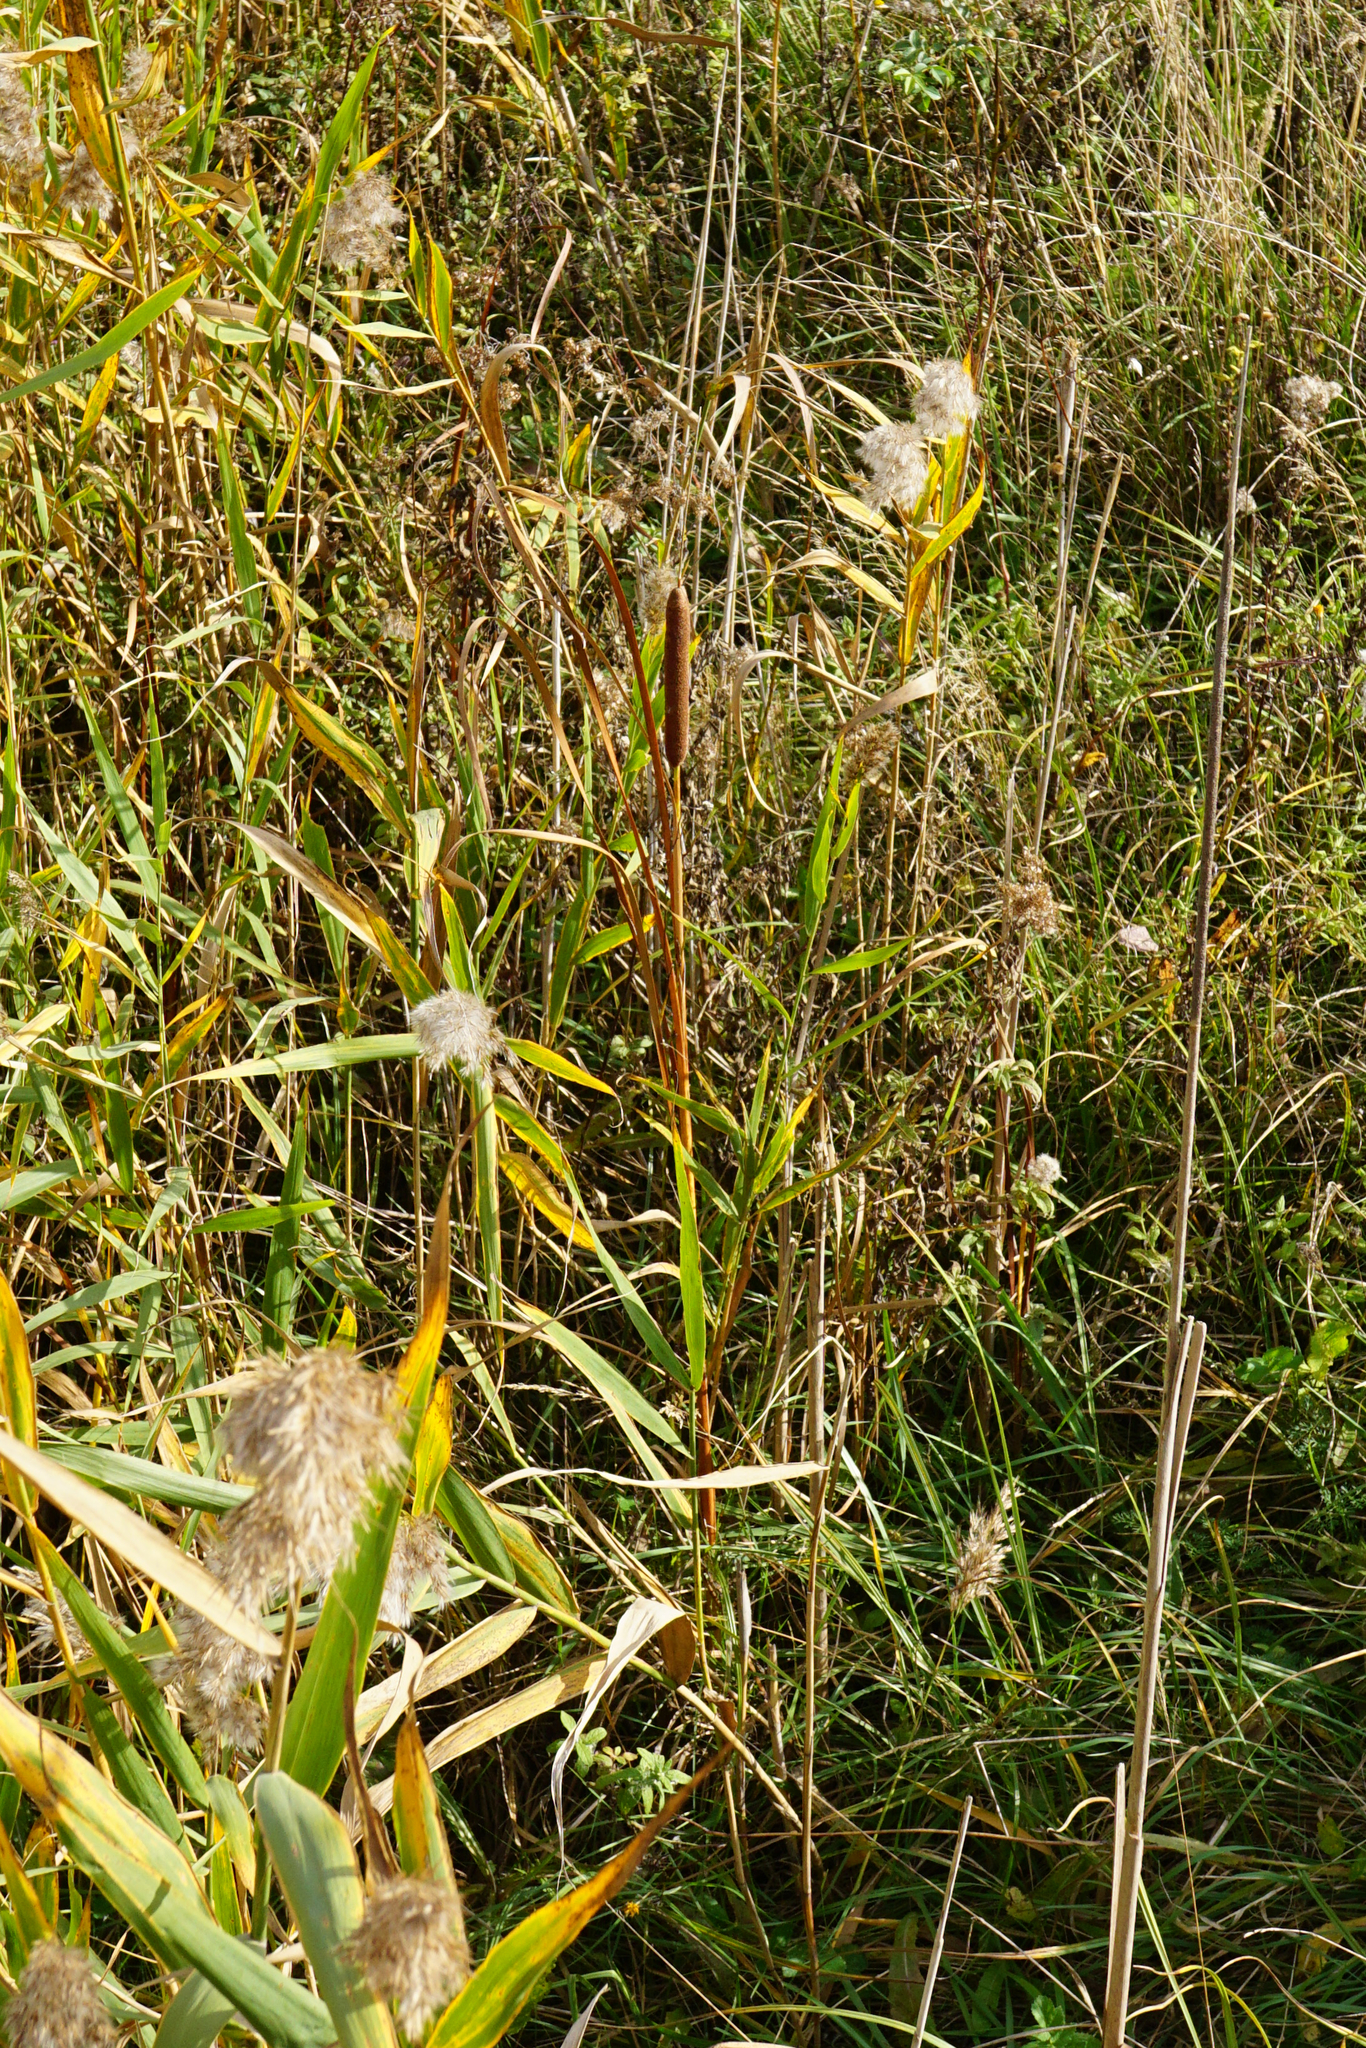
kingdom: Plantae
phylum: Tracheophyta
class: Liliopsida
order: Poales
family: Typhaceae
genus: Typha
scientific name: Typha angustifolia
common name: Lesser bulrush
